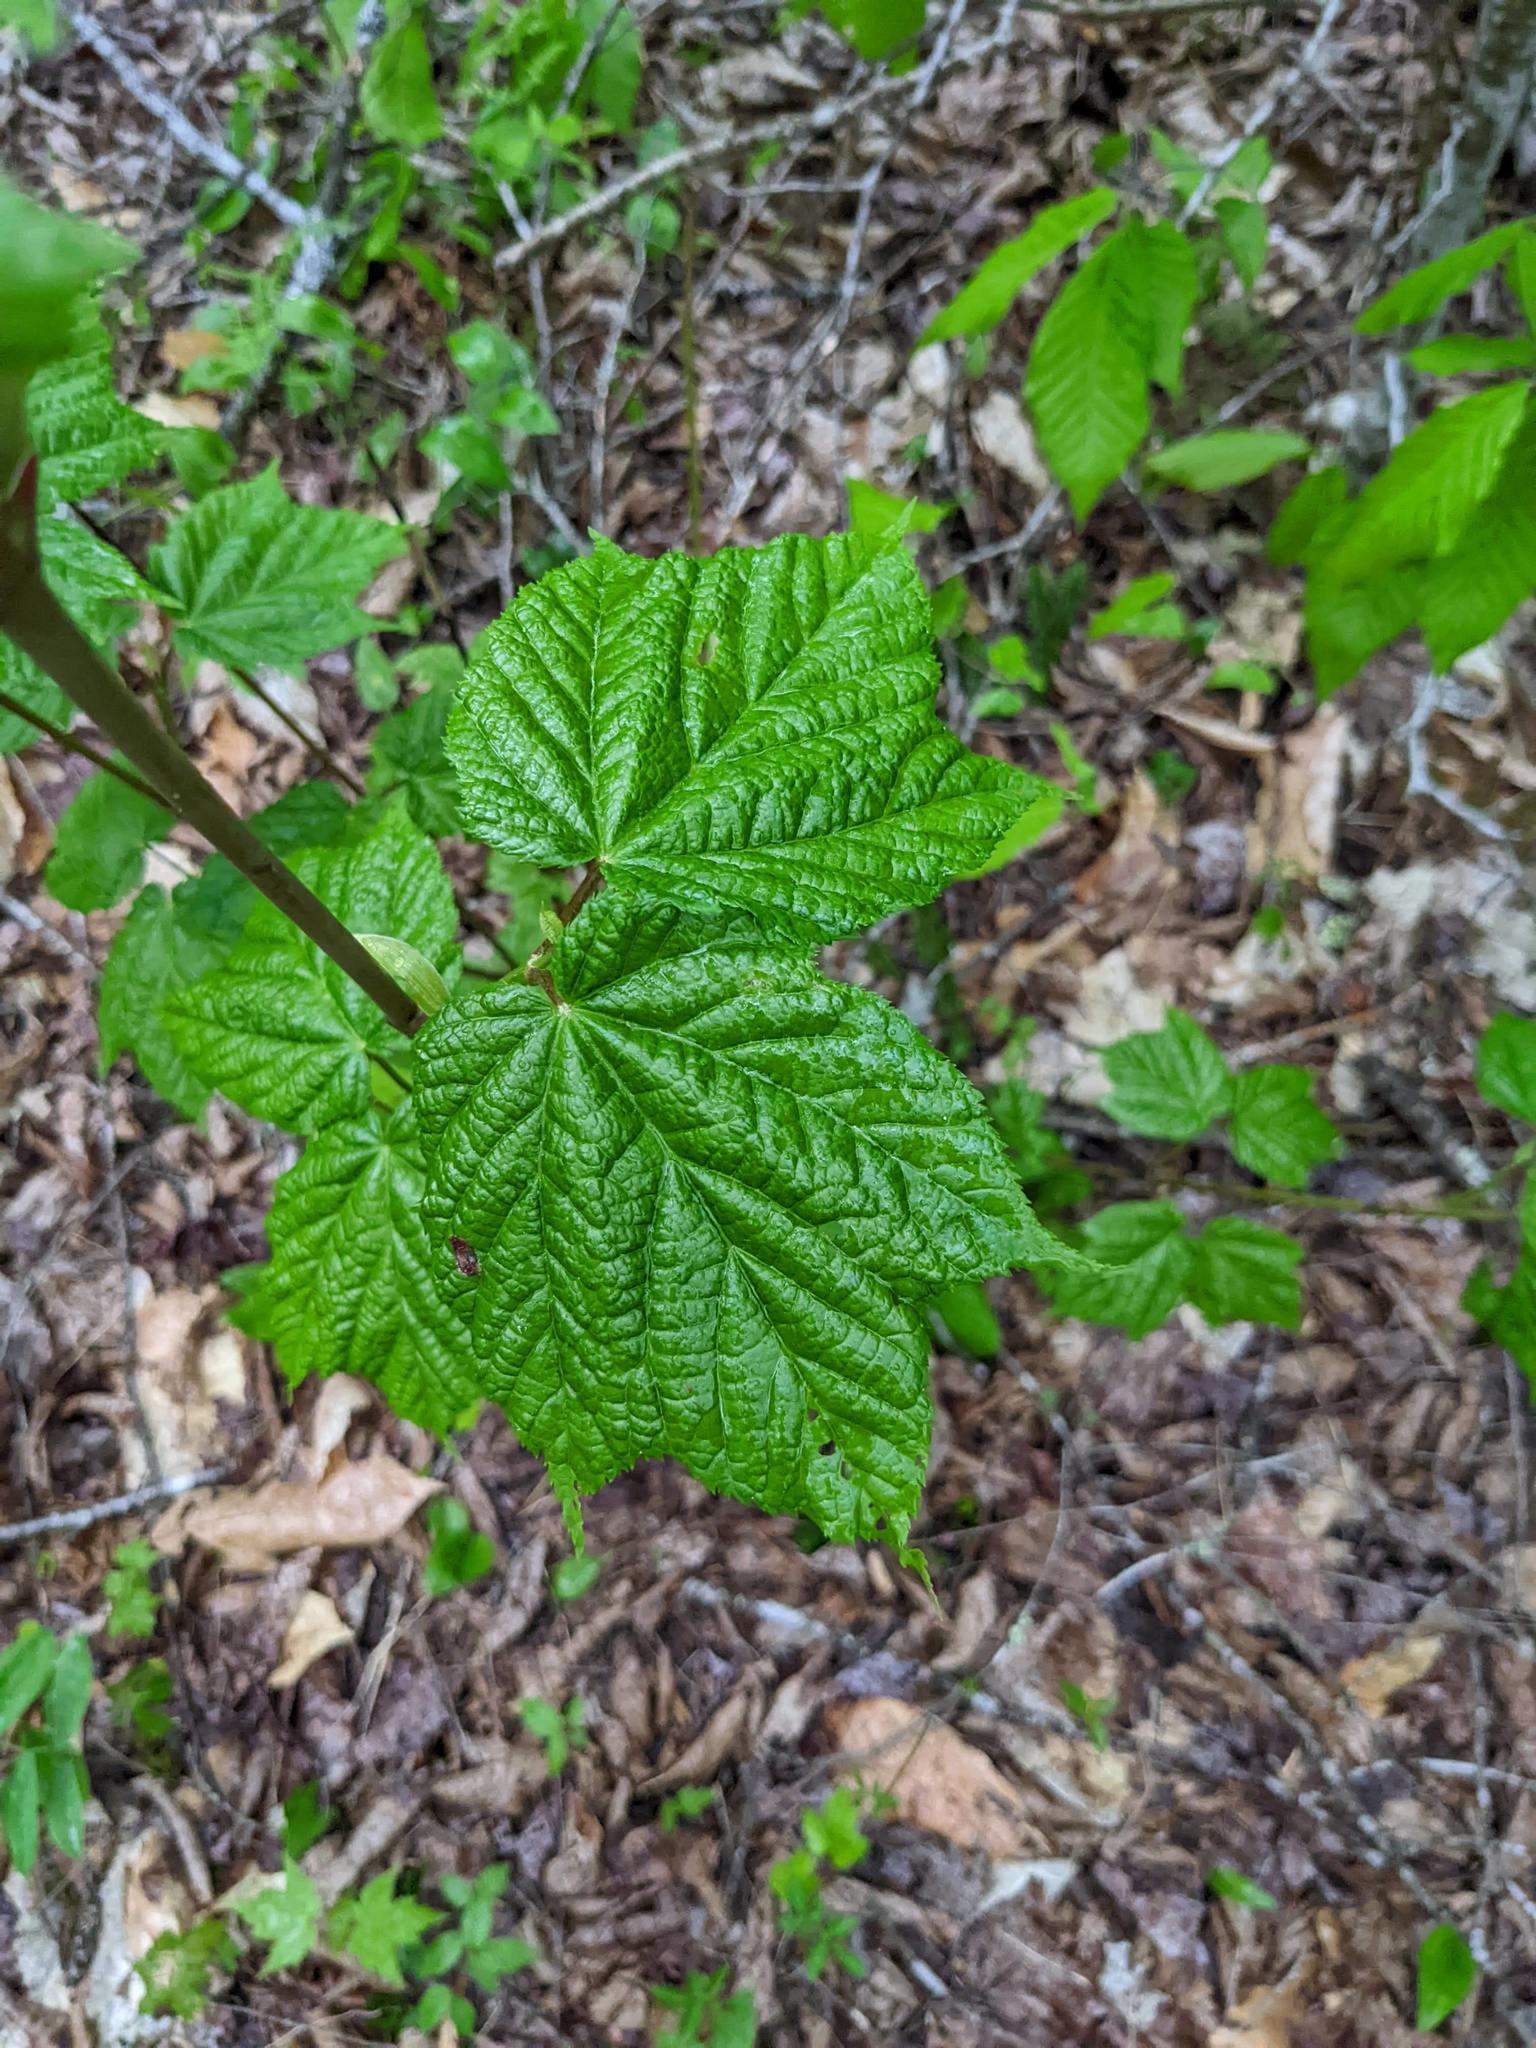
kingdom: Plantae
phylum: Tracheophyta
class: Magnoliopsida
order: Sapindales
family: Sapindaceae
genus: Acer
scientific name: Acer pensylvanicum
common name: Moosewood
